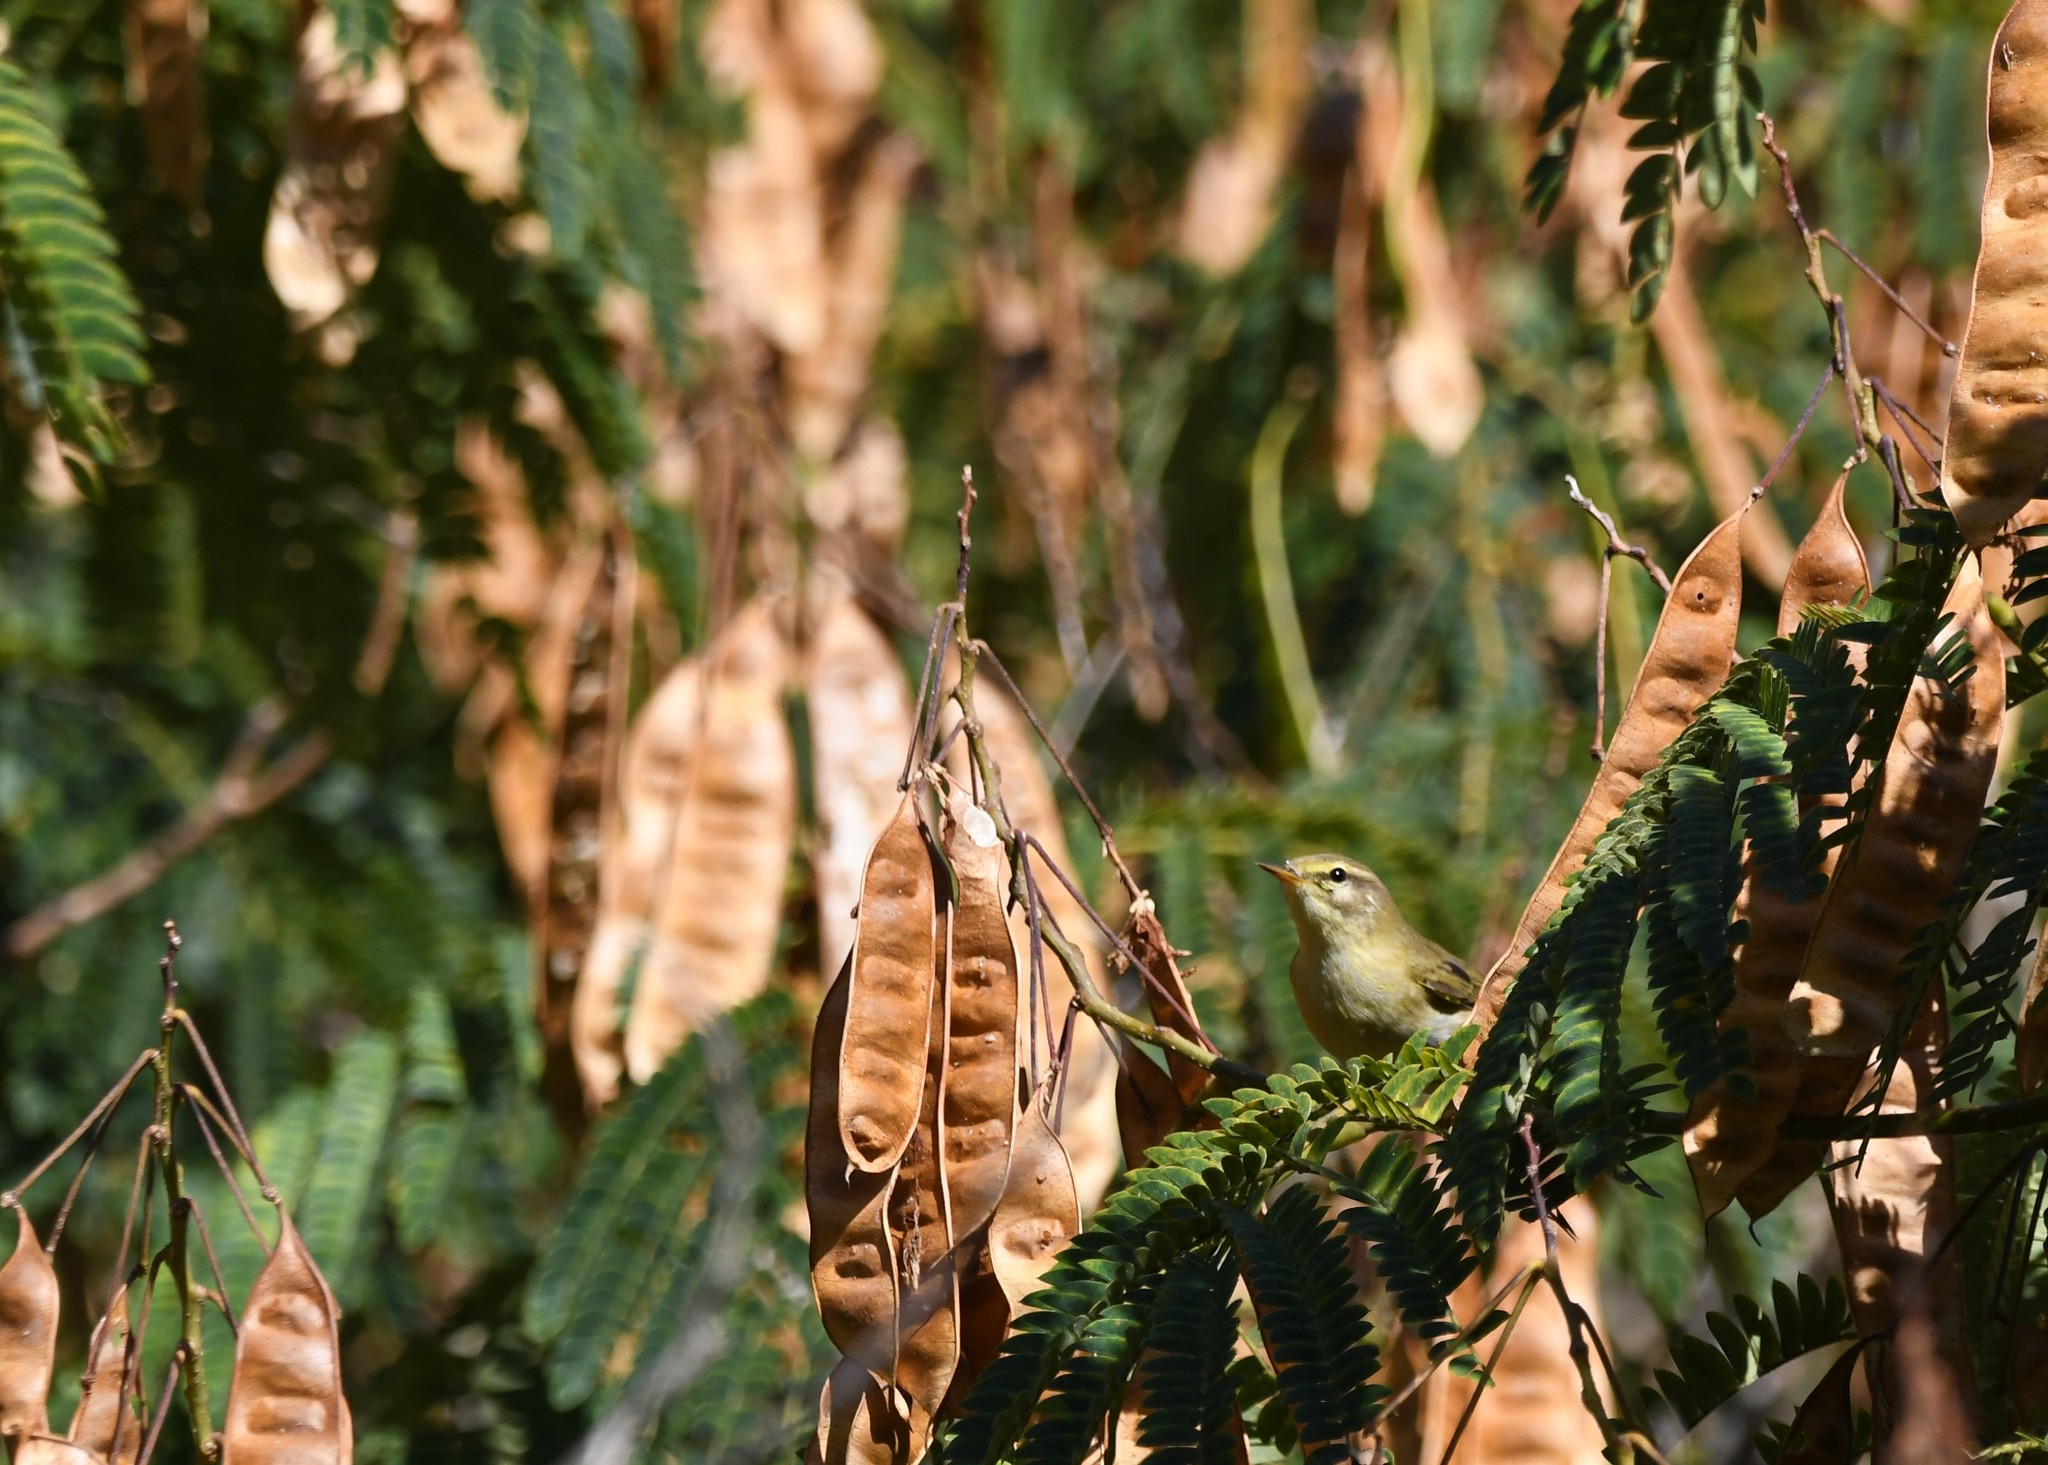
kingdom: Animalia
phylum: Chordata
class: Aves
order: Passeriformes
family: Phylloscopidae
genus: Phylloscopus
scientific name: Phylloscopus trochilus
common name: Willow warbler
